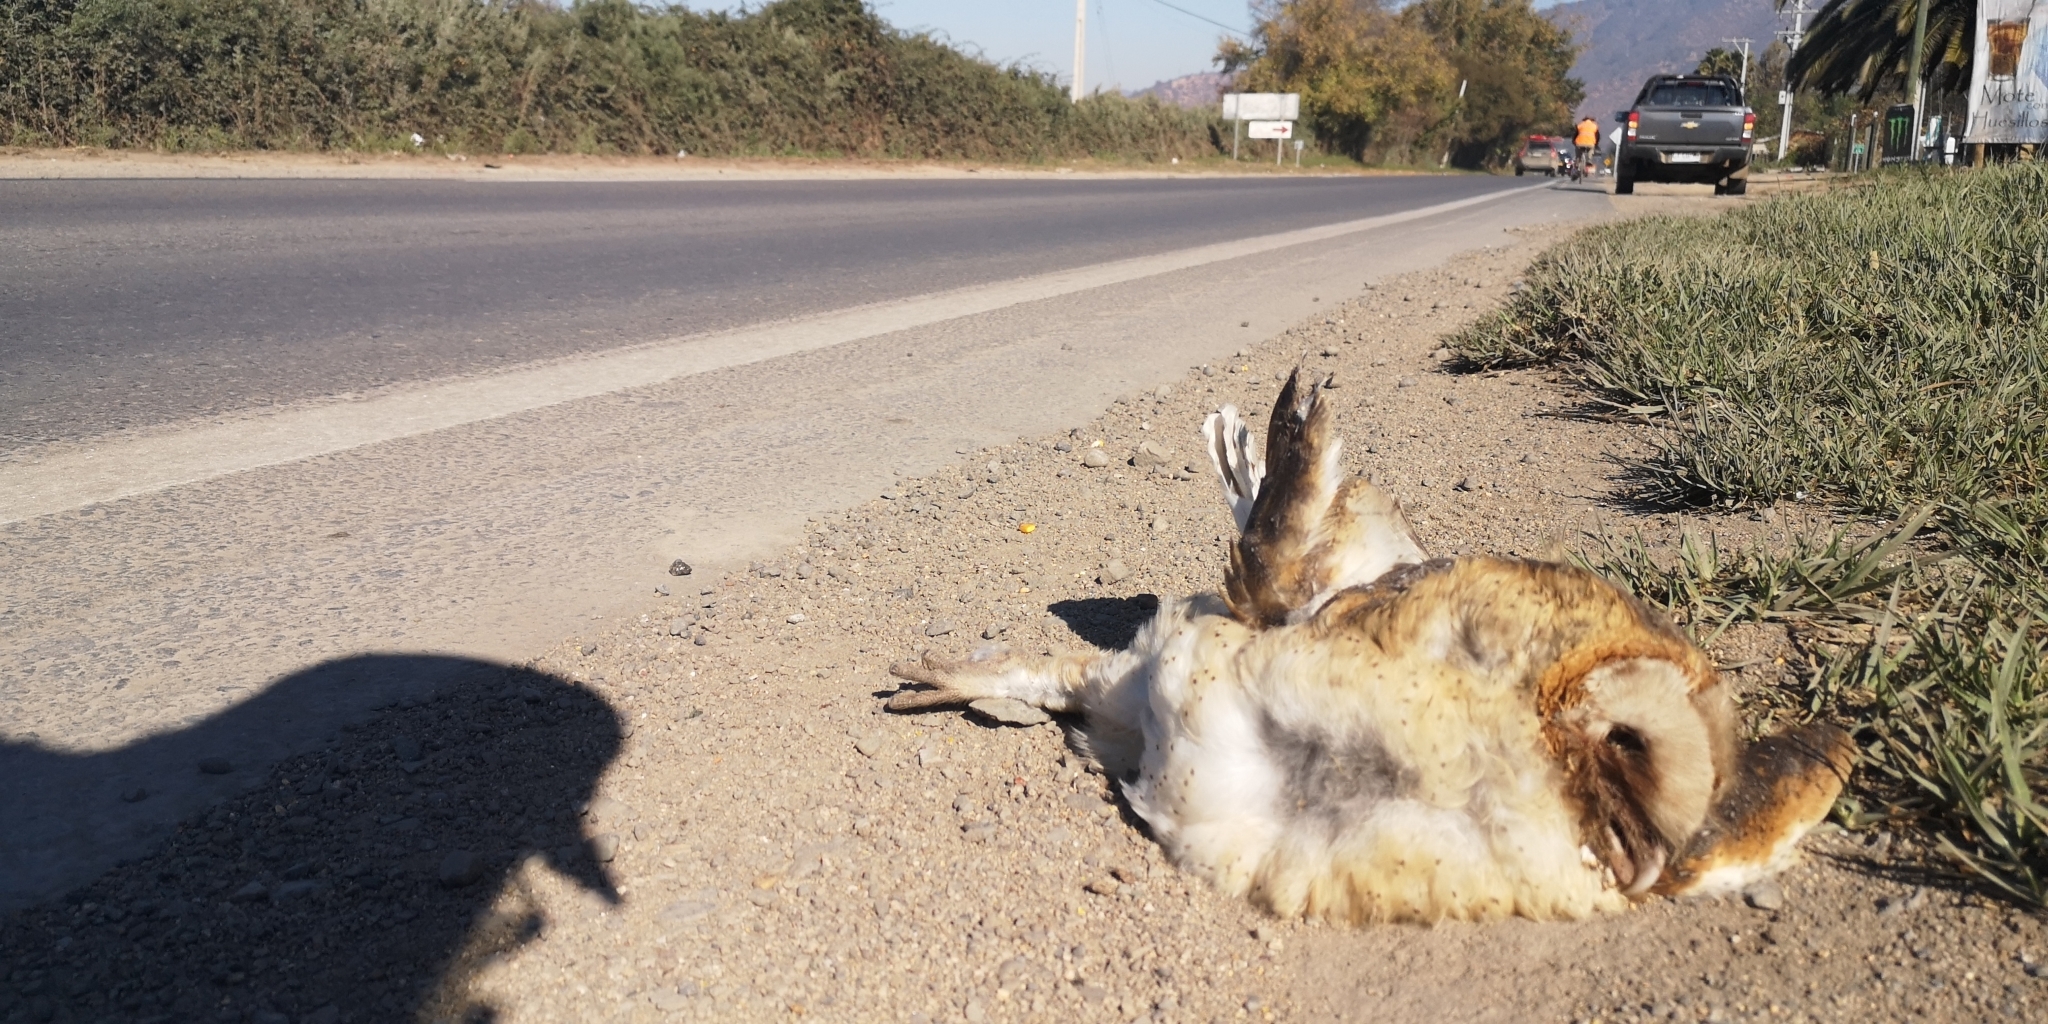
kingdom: Animalia
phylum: Chordata
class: Aves
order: Strigiformes
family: Tytonidae
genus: Tyto
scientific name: Tyto alba
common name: Barn owl
